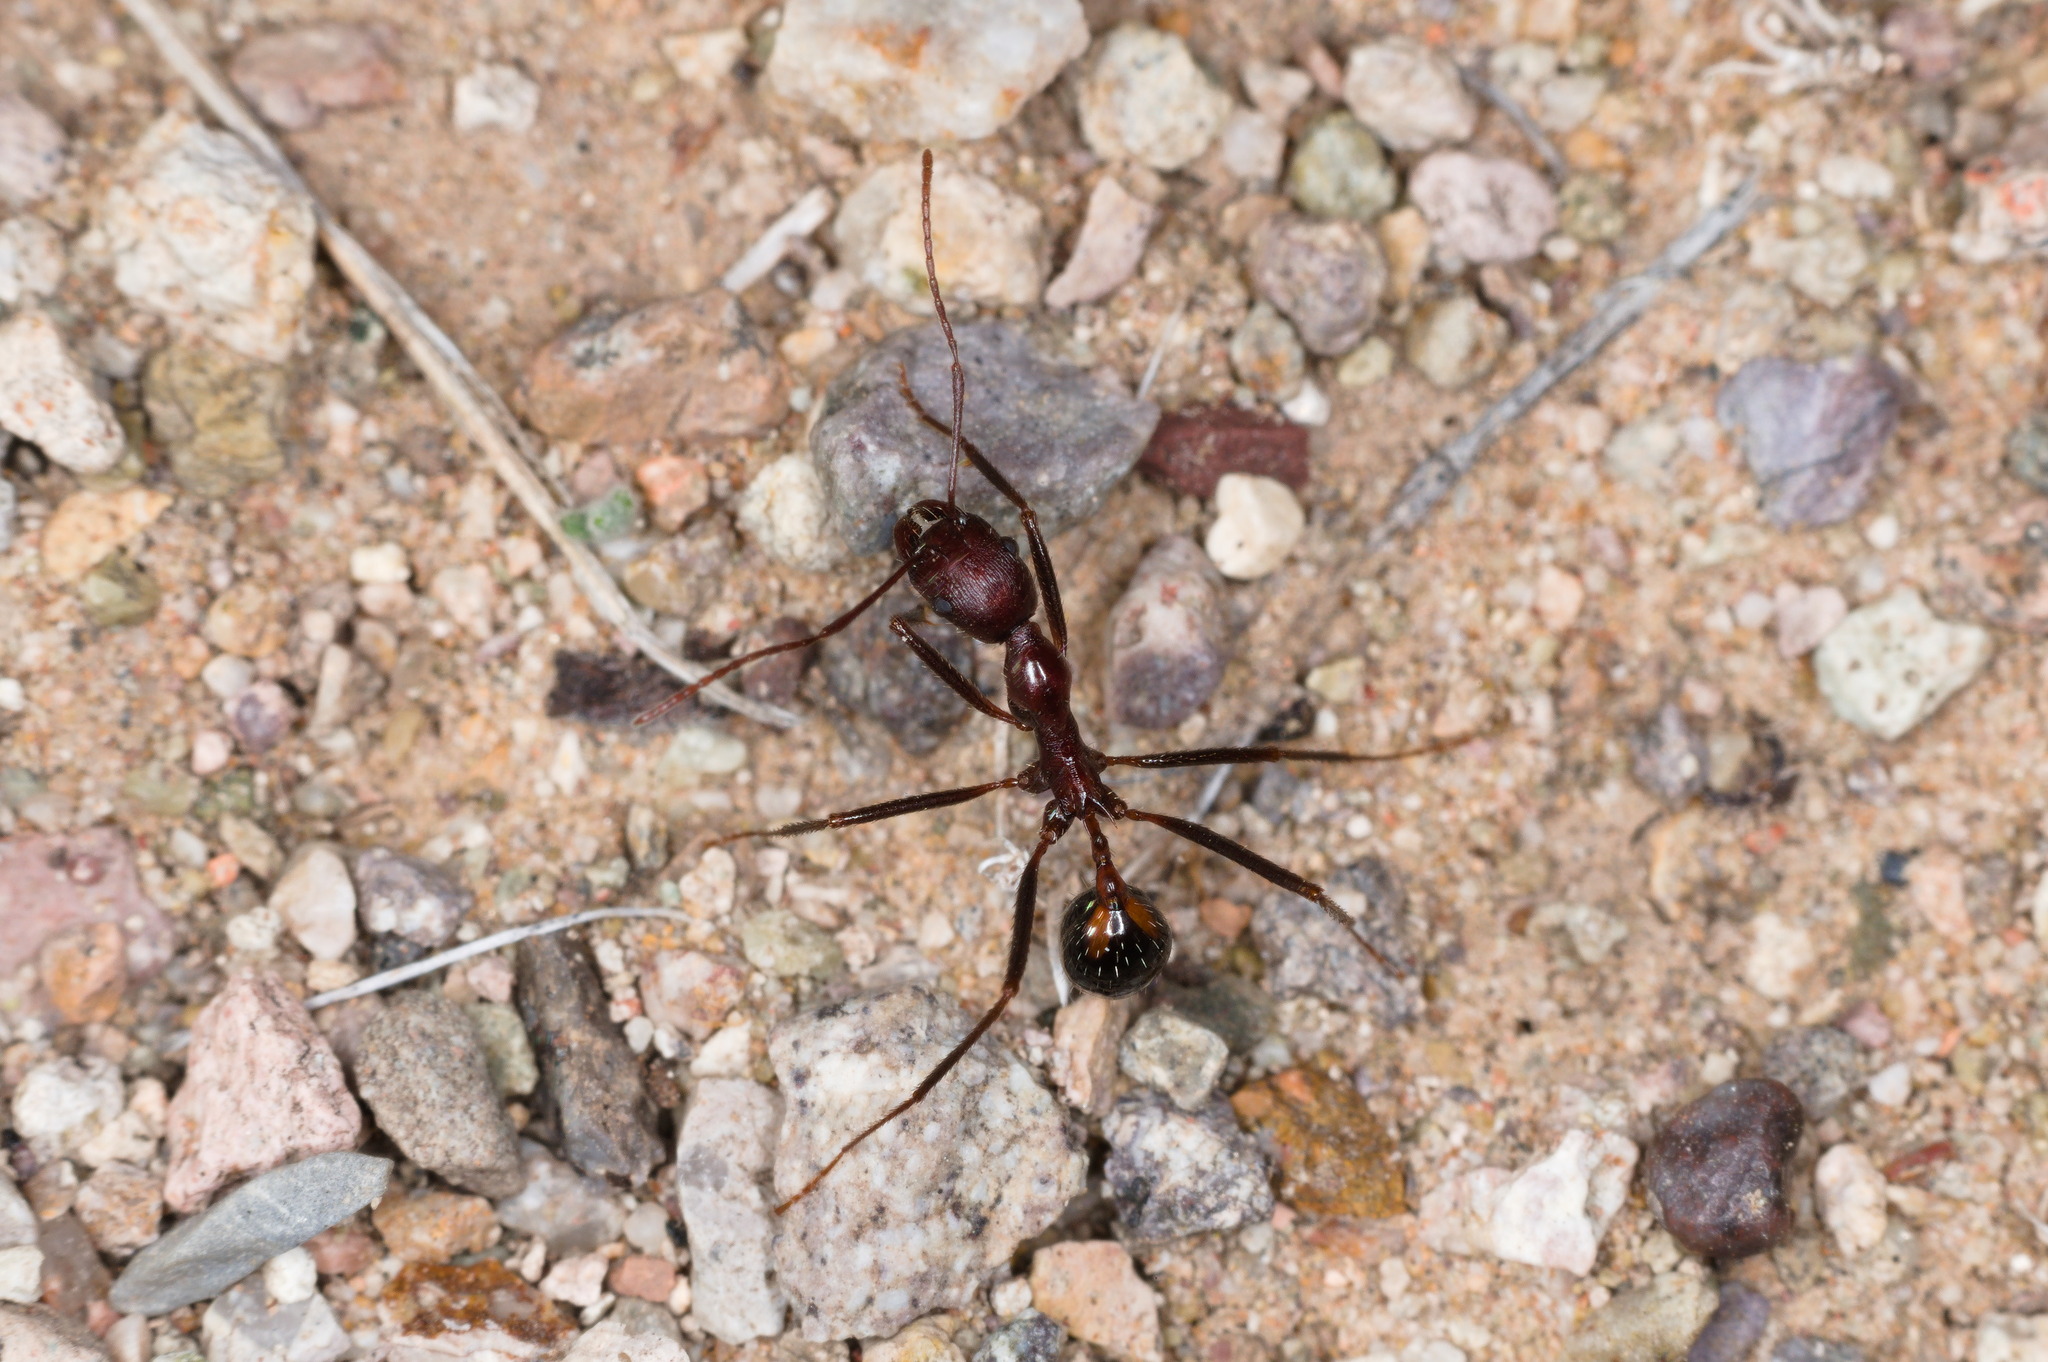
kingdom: Animalia
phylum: Arthropoda
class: Insecta
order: Hymenoptera
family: Formicidae
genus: Novomessor
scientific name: Novomessor cockerelli
